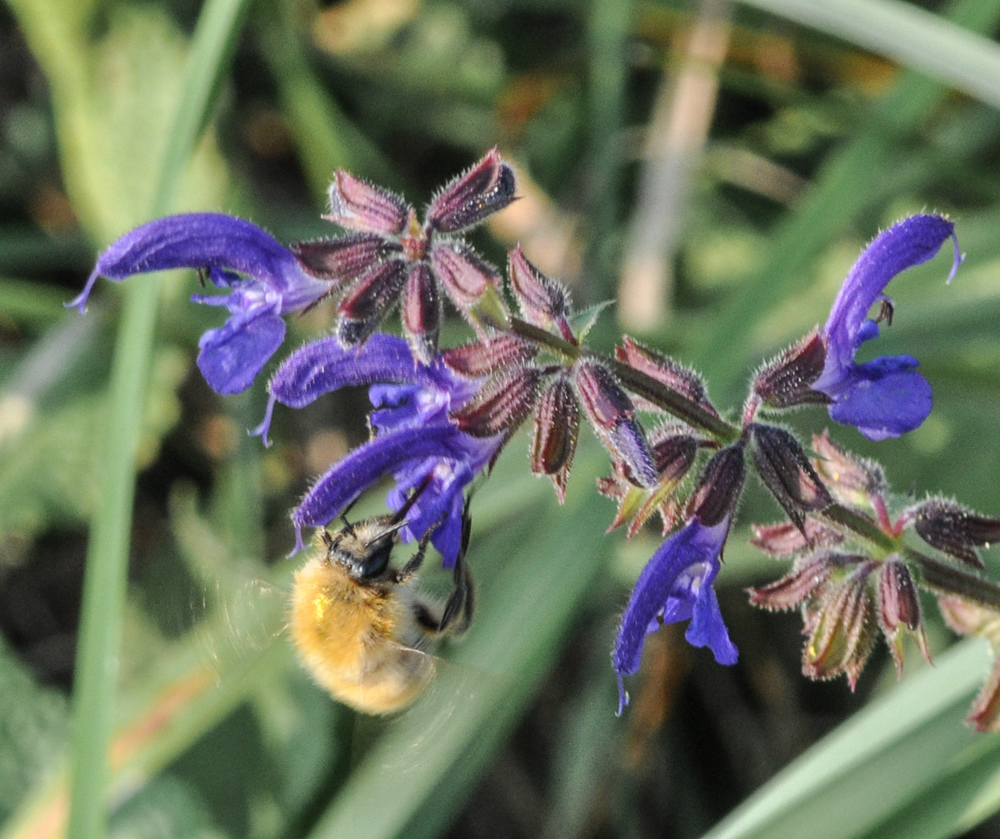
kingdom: Animalia
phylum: Arthropoda
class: Insecta
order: Hymenoptera
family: Apidae
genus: Bombus
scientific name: Bombus pascuorum
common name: Common carder bee
